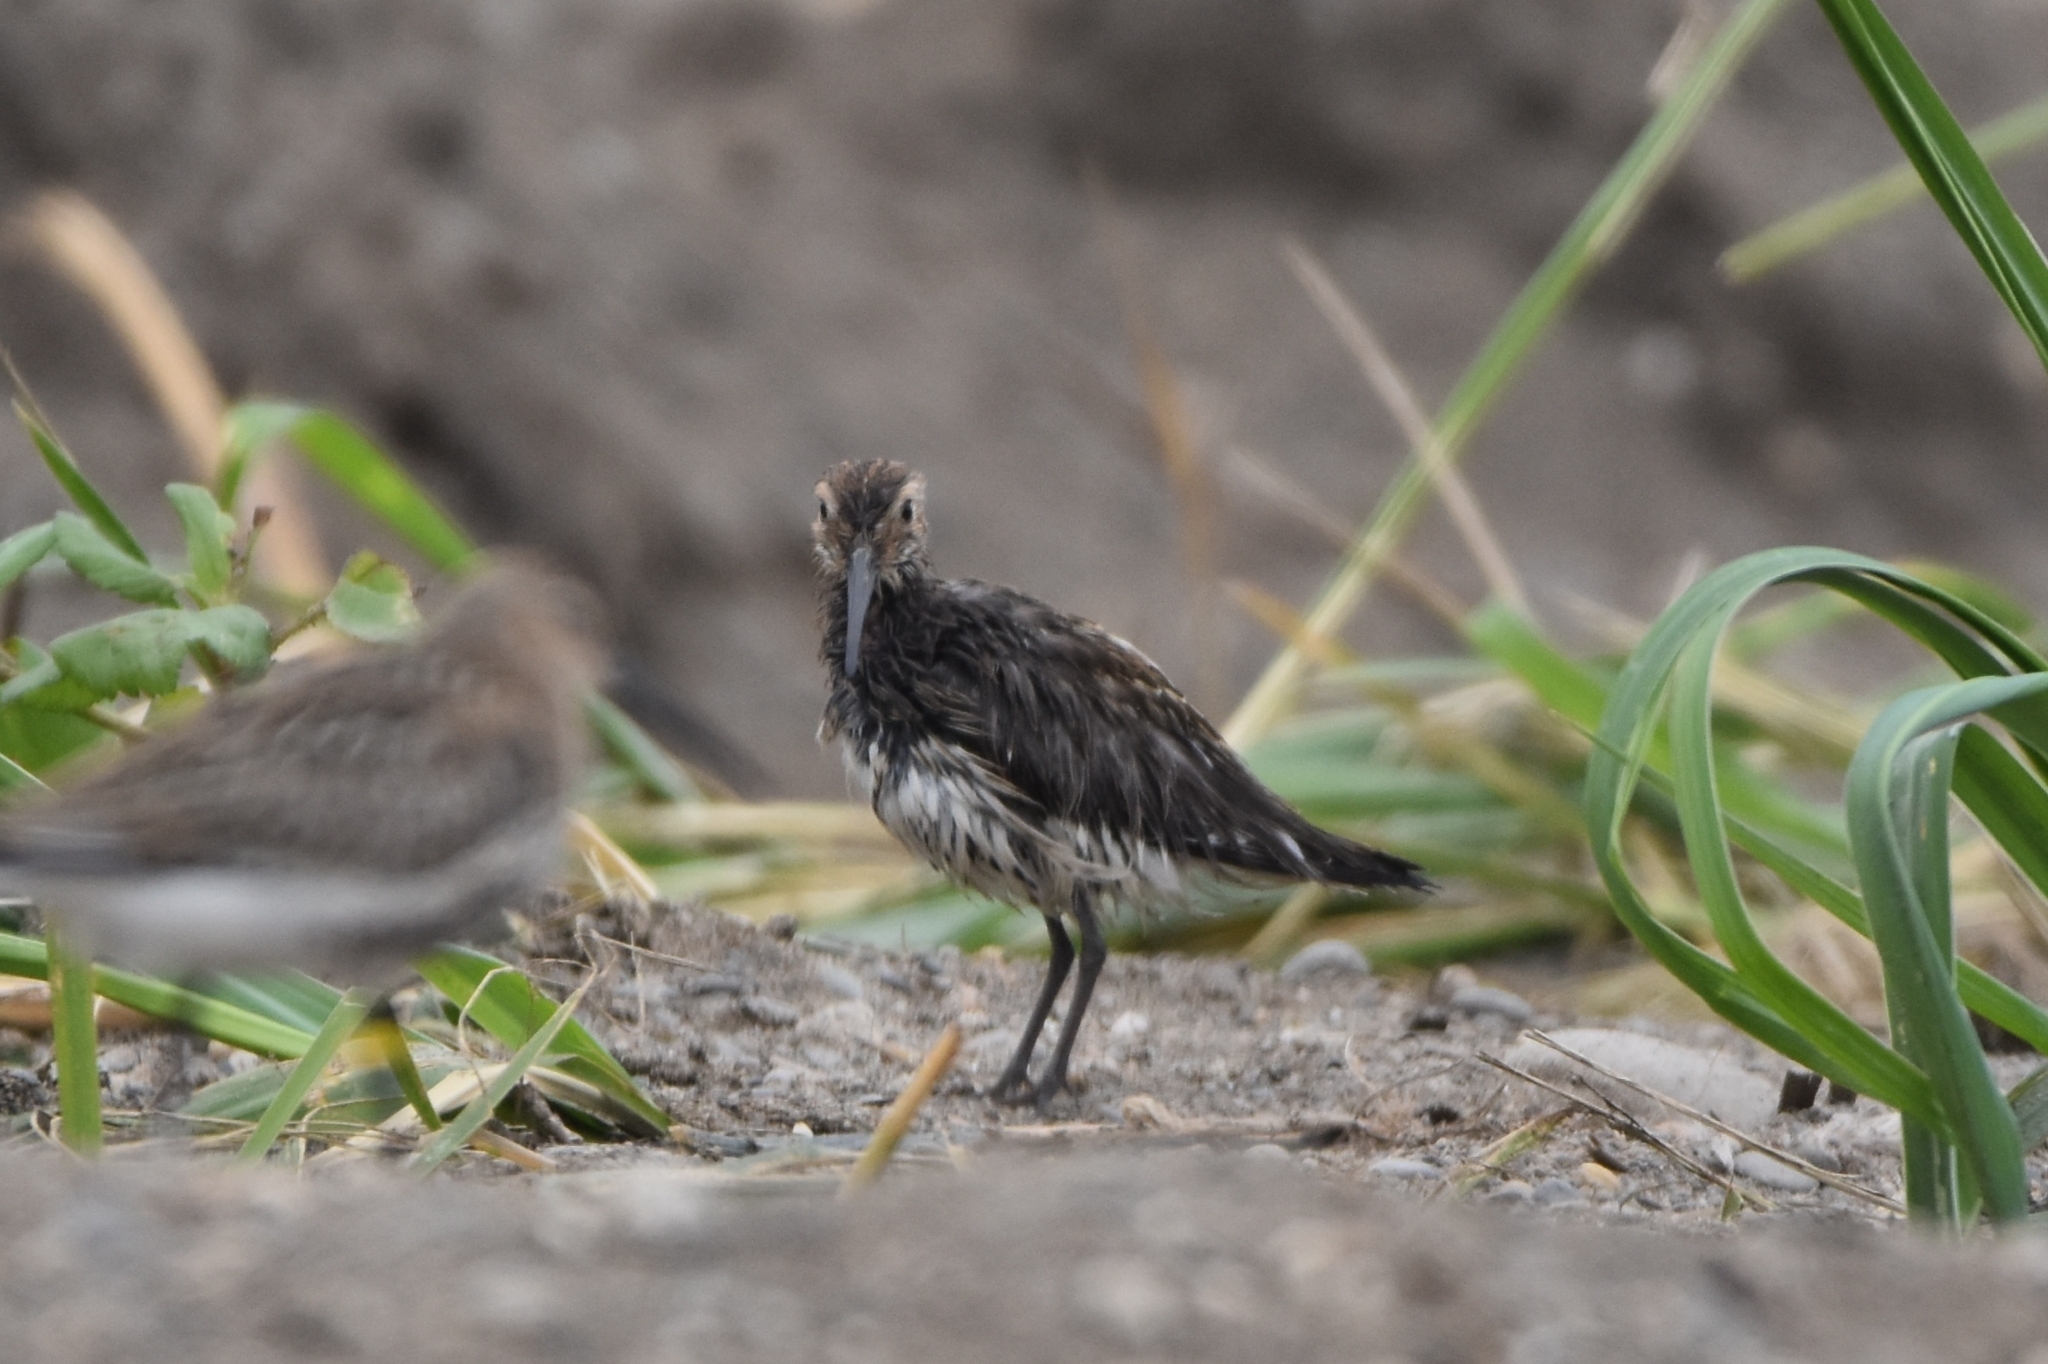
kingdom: Animalia
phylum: Chordata
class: Aves
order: Charadriiformes
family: Scolopacidae
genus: Calidris
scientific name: Calidris alpina
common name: Dunlin
